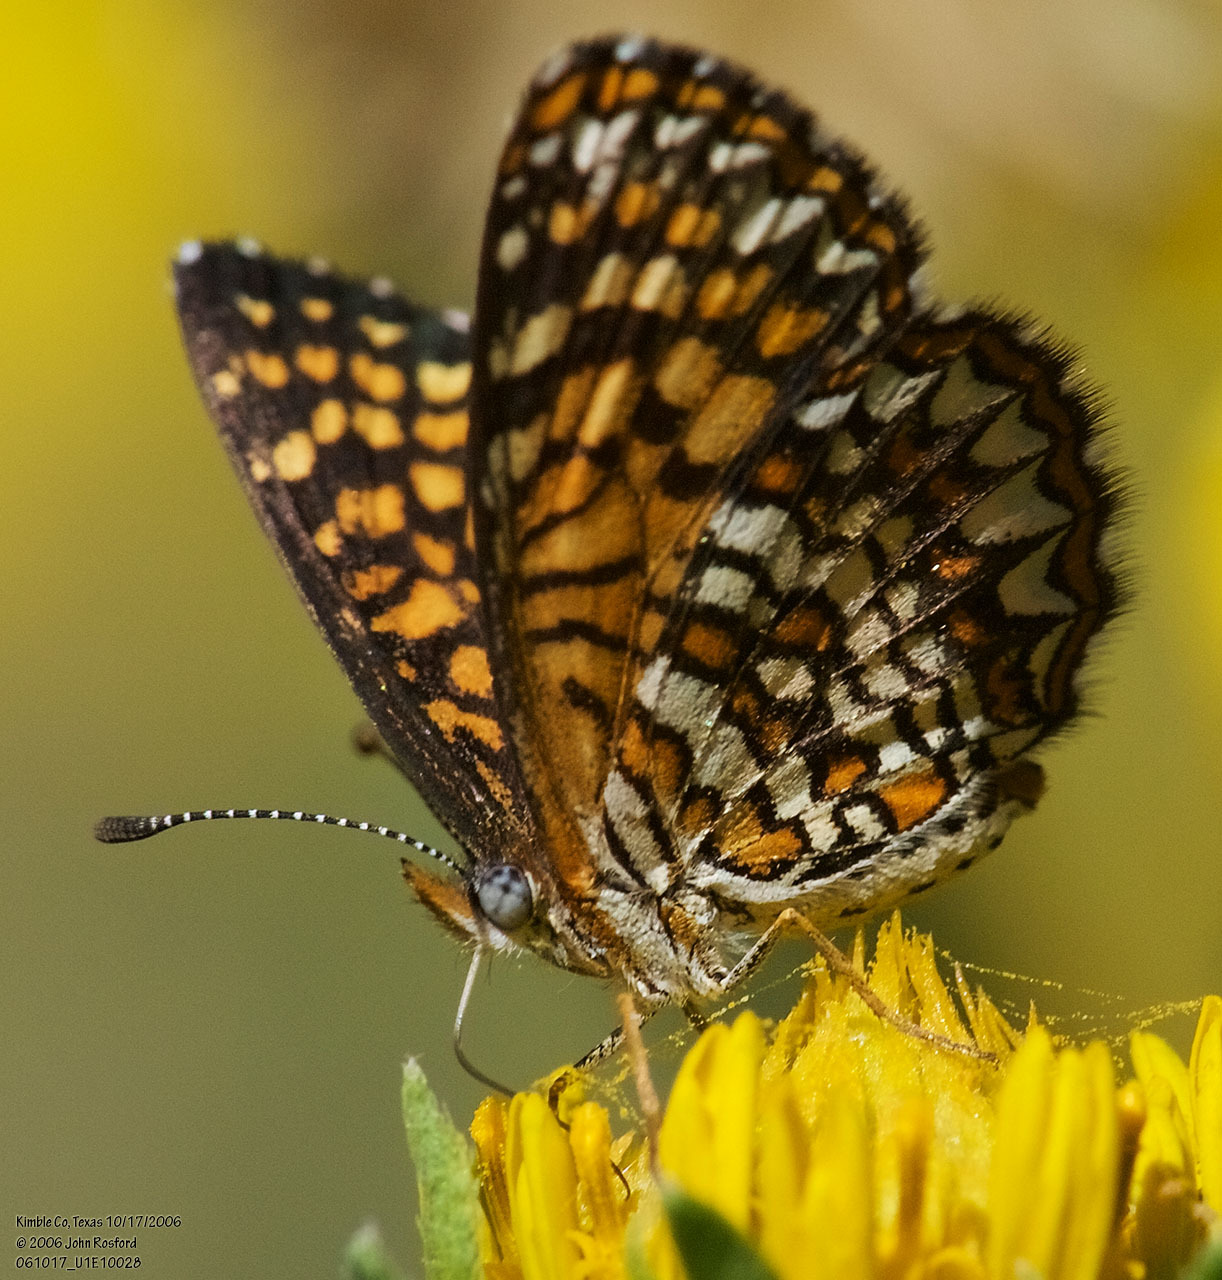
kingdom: Animalia
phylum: Arthropoda
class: Insecta
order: Lepidoptera
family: Nymphalidae
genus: Texola
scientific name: Texola elada
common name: Elada checkerspot
